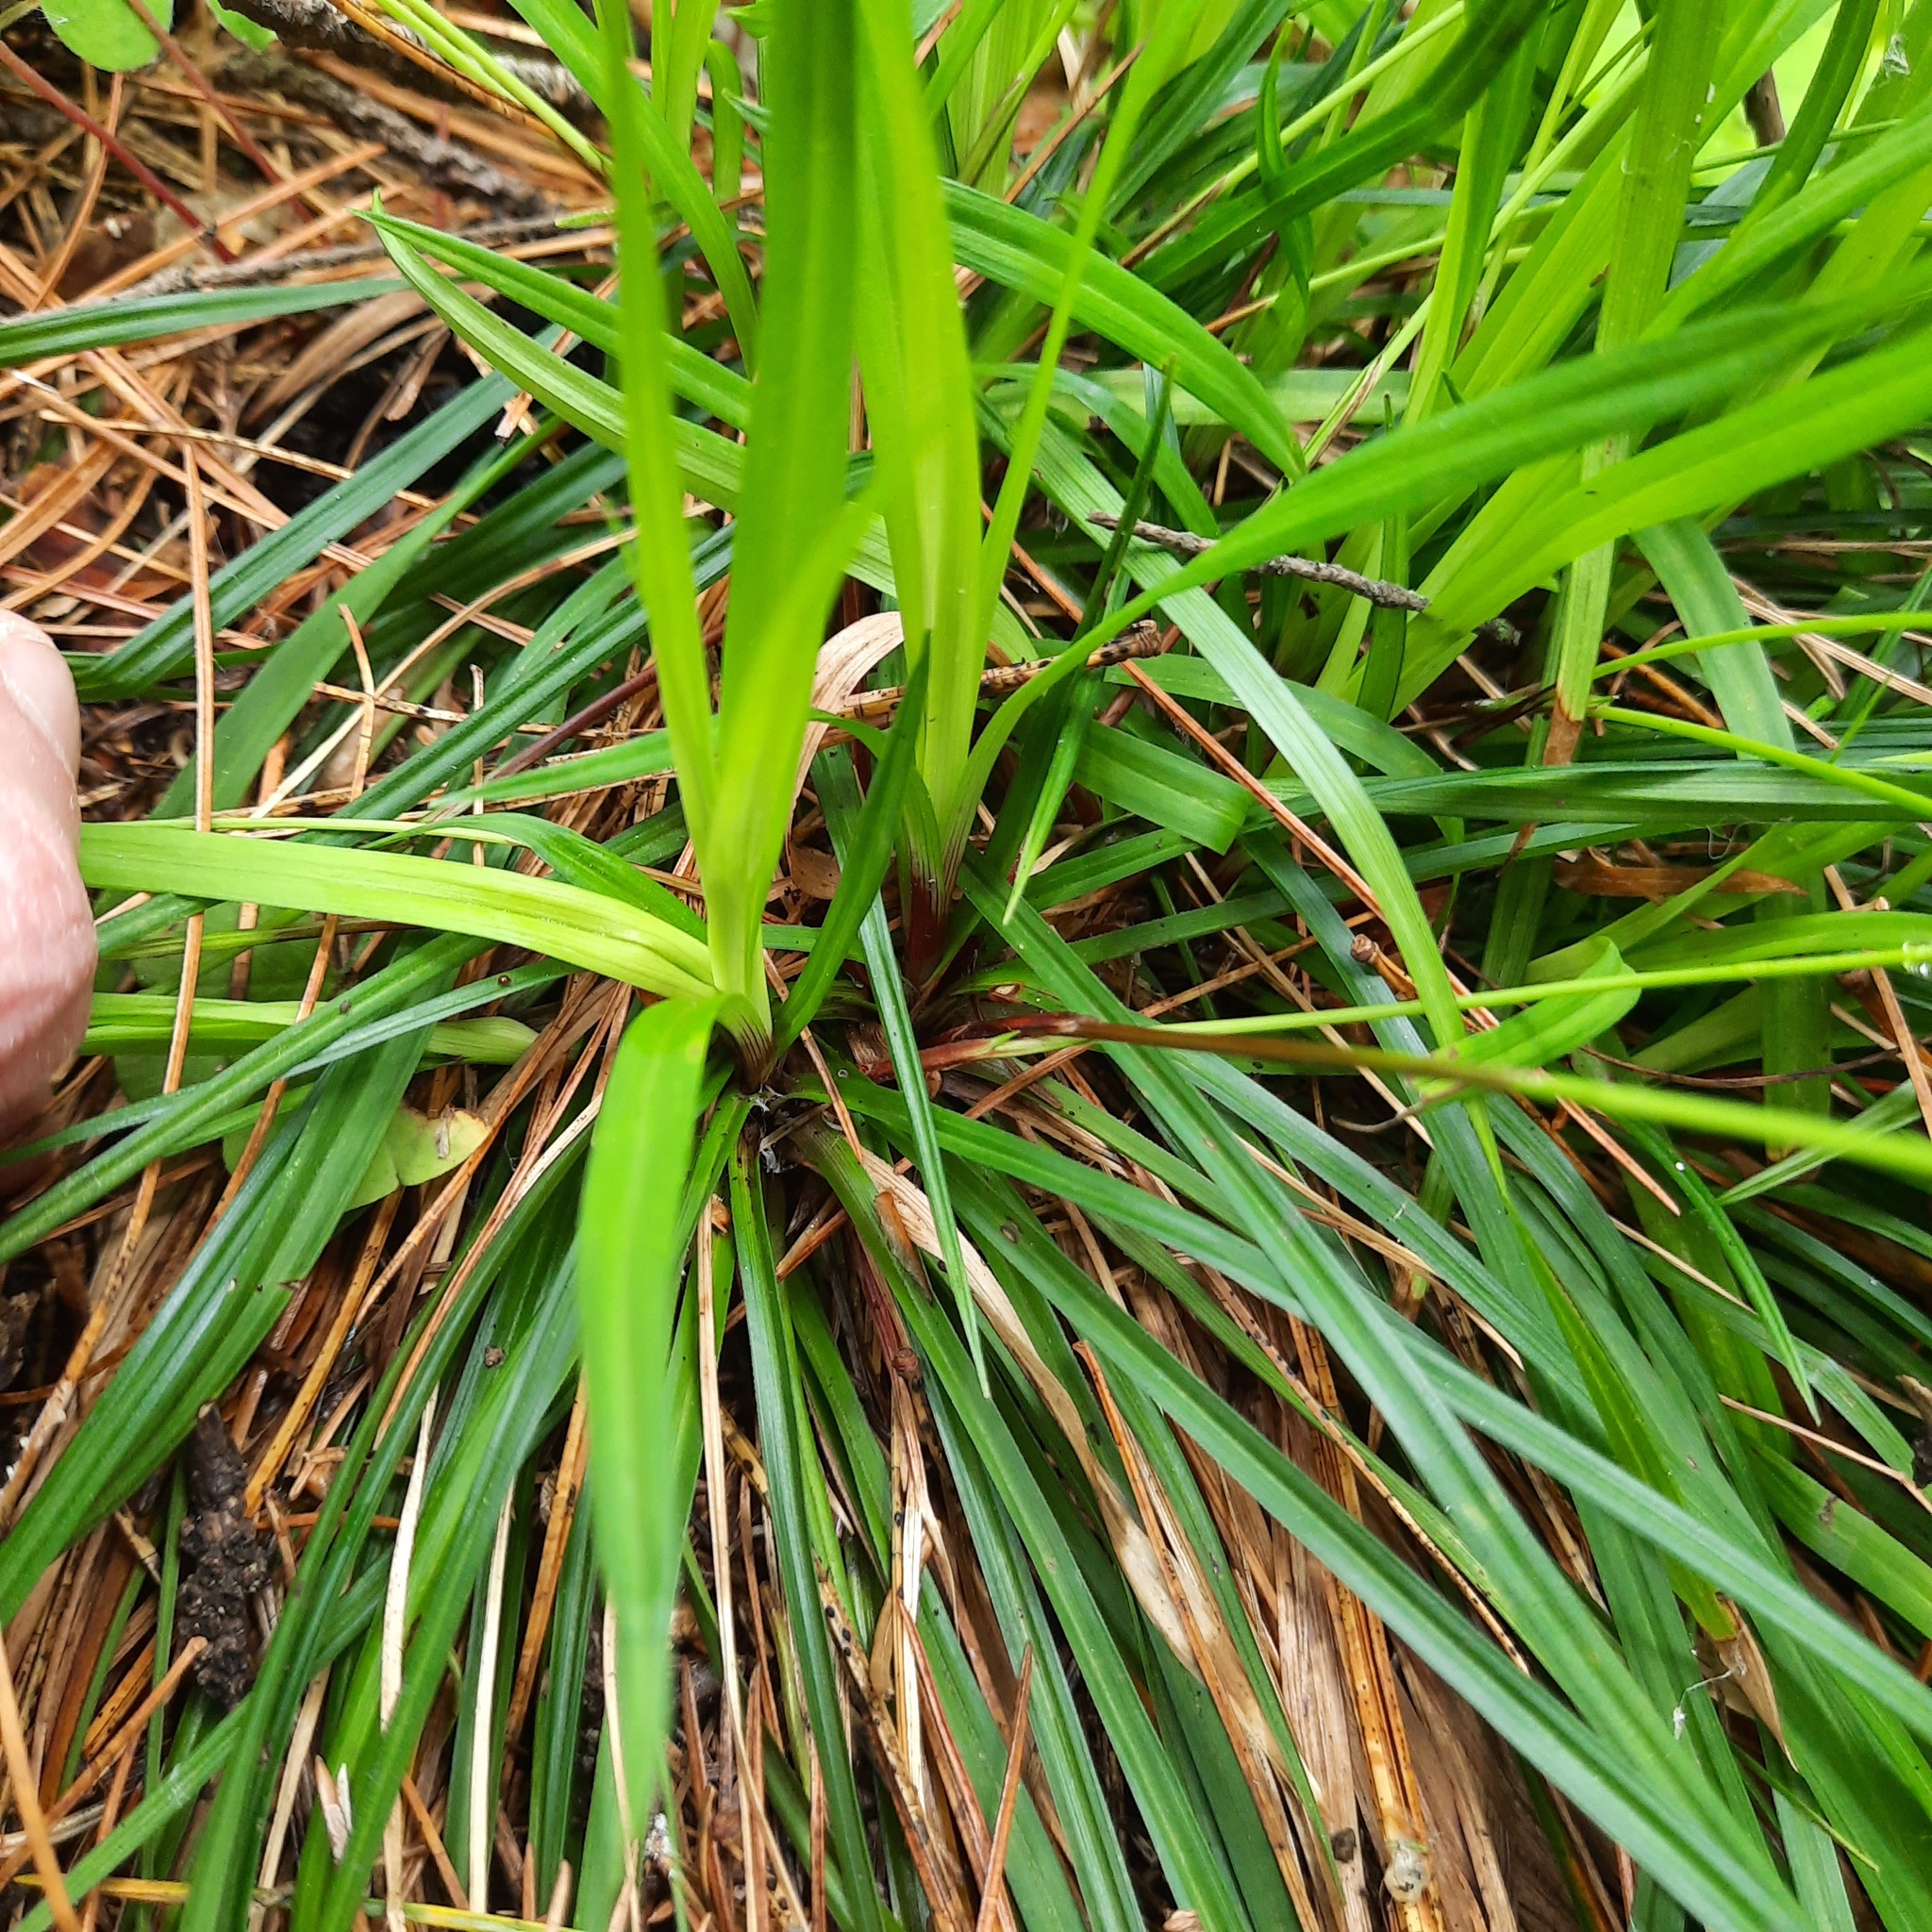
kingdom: Plantae
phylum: Tracheophyta
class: Liliopsida
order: Poales
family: Cyperaceae
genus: Carex
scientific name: Carex pediformis
